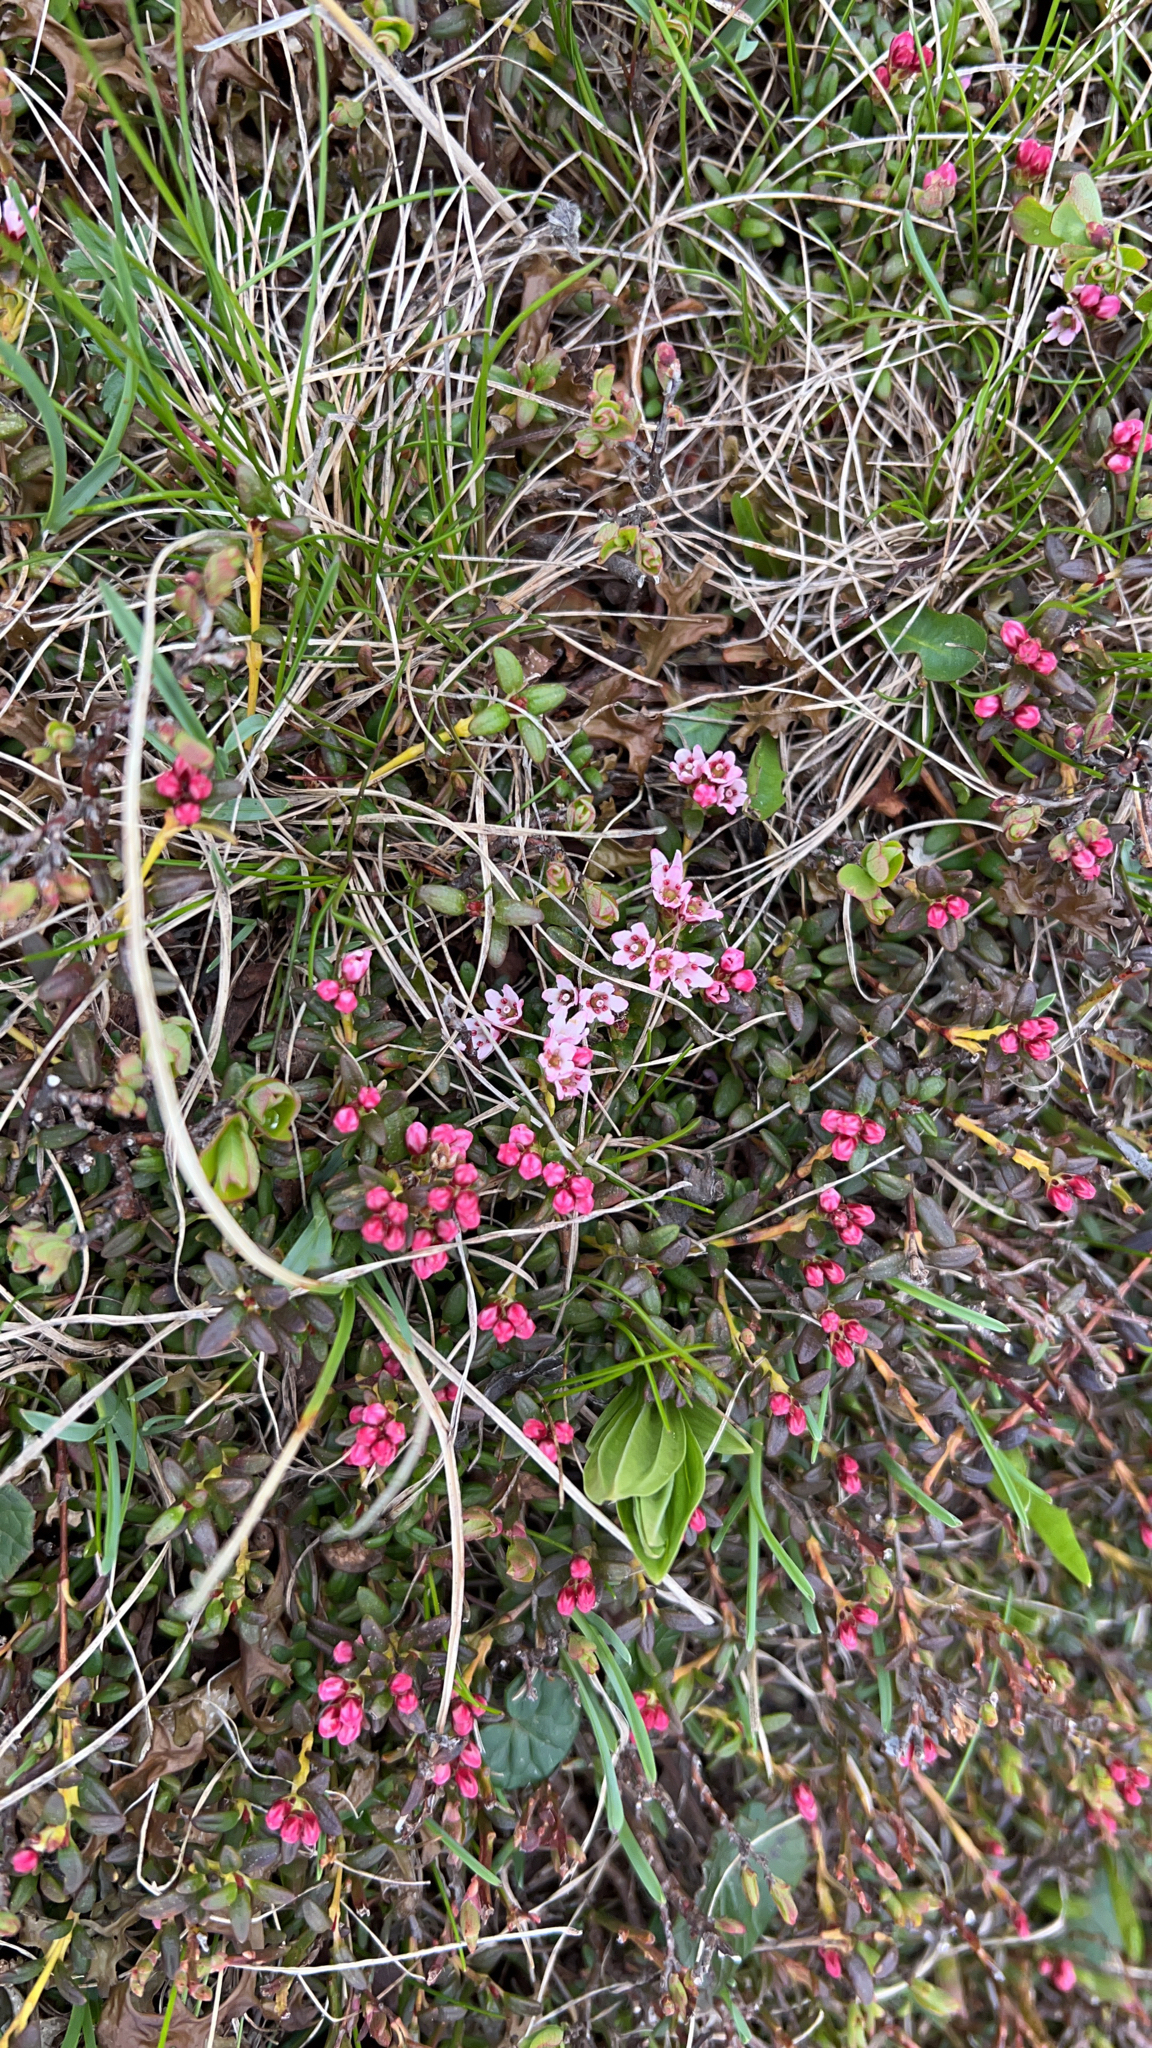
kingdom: Plantae
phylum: Tracheophyta
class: Magnoliopsida
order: Ericales
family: Ericaceae
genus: Kalmia
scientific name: Kalmia procumbens
